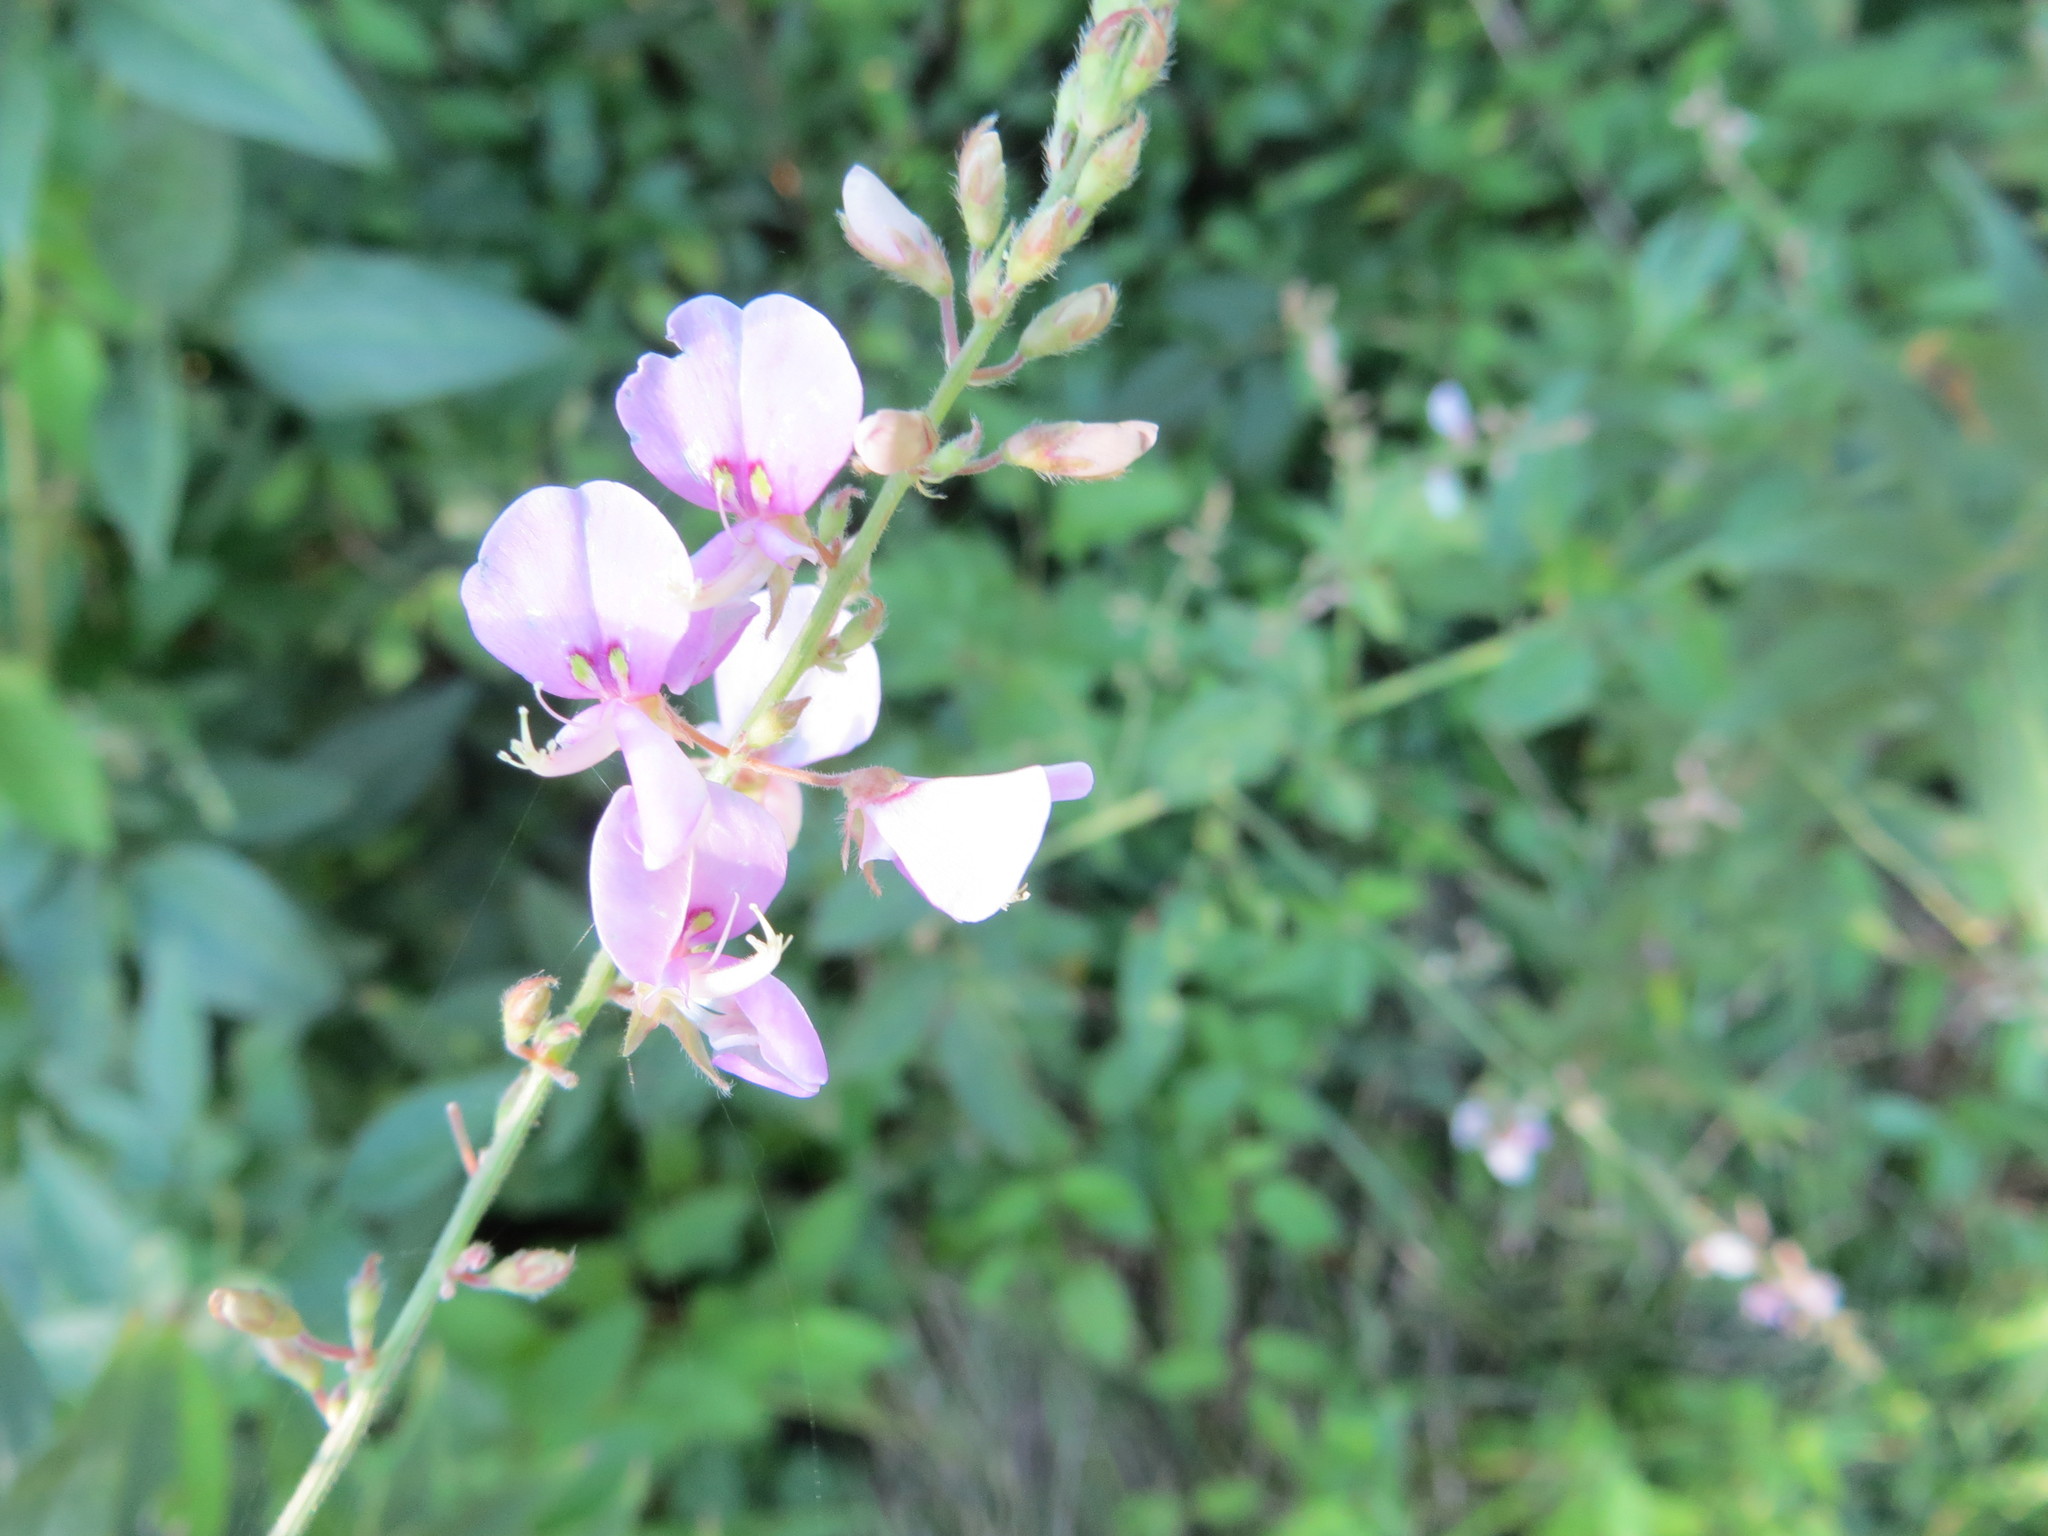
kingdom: Plantae
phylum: Tracheophyta
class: Magnoliopsida
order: Fabales
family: Fabaceae
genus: Desmodium
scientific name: Desmodium
